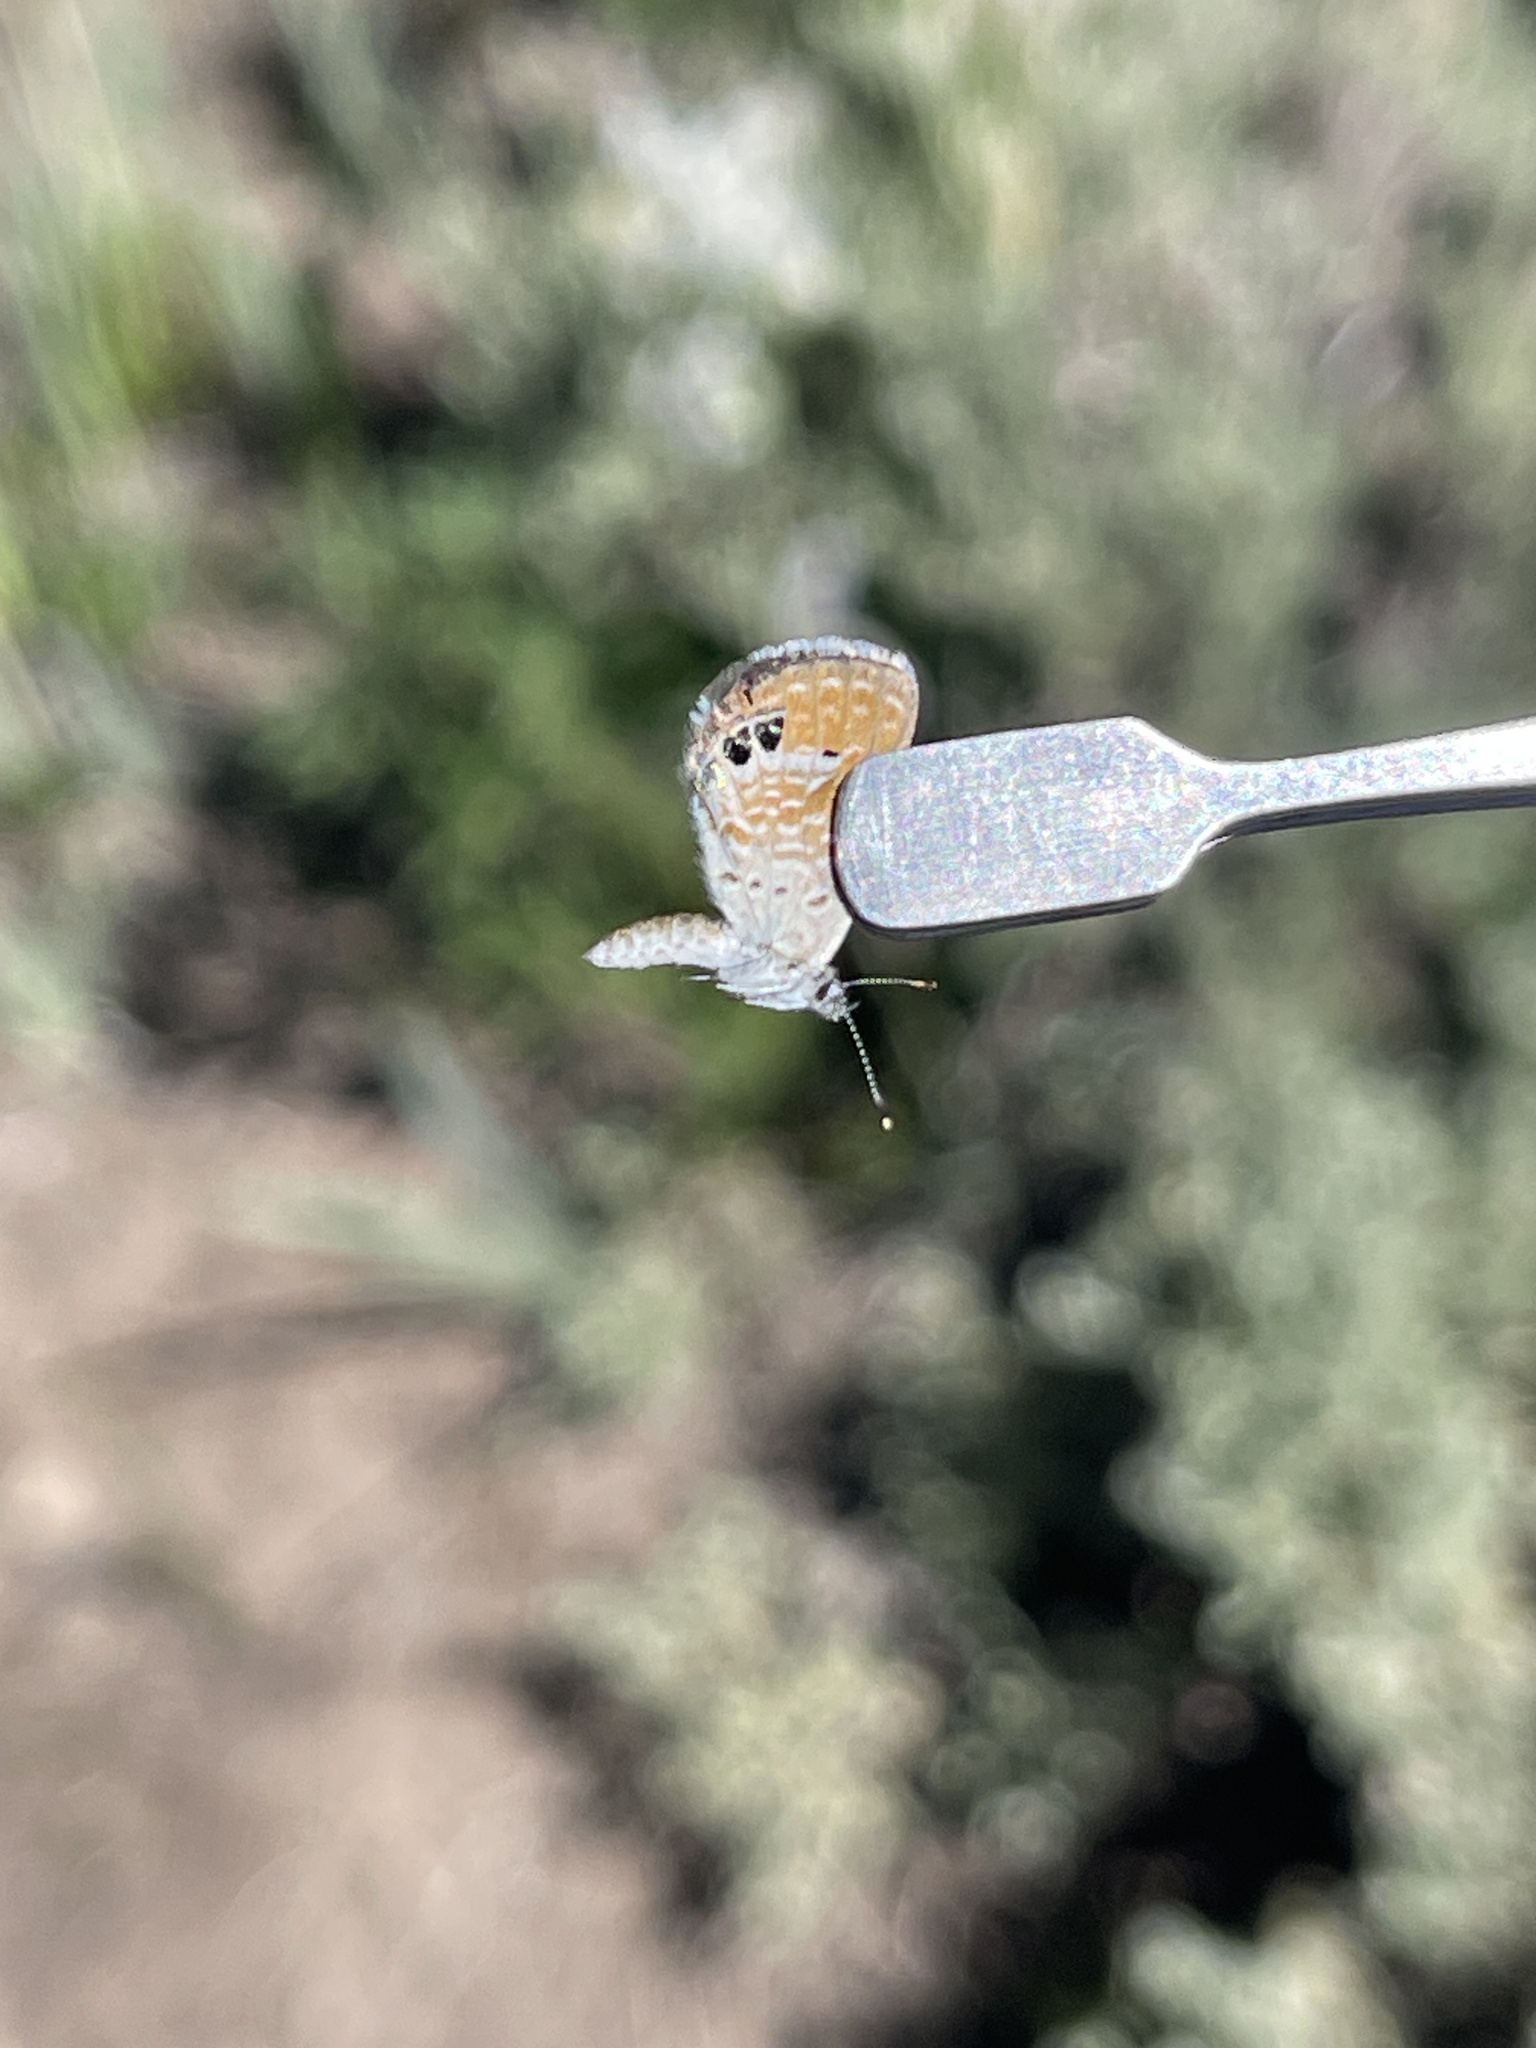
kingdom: Animalia
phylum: Arthropoda
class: Insecta
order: Lepidoptera
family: Lycaenidae
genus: Brephidium
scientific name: Brephidium exilis
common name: Pygmy blue
